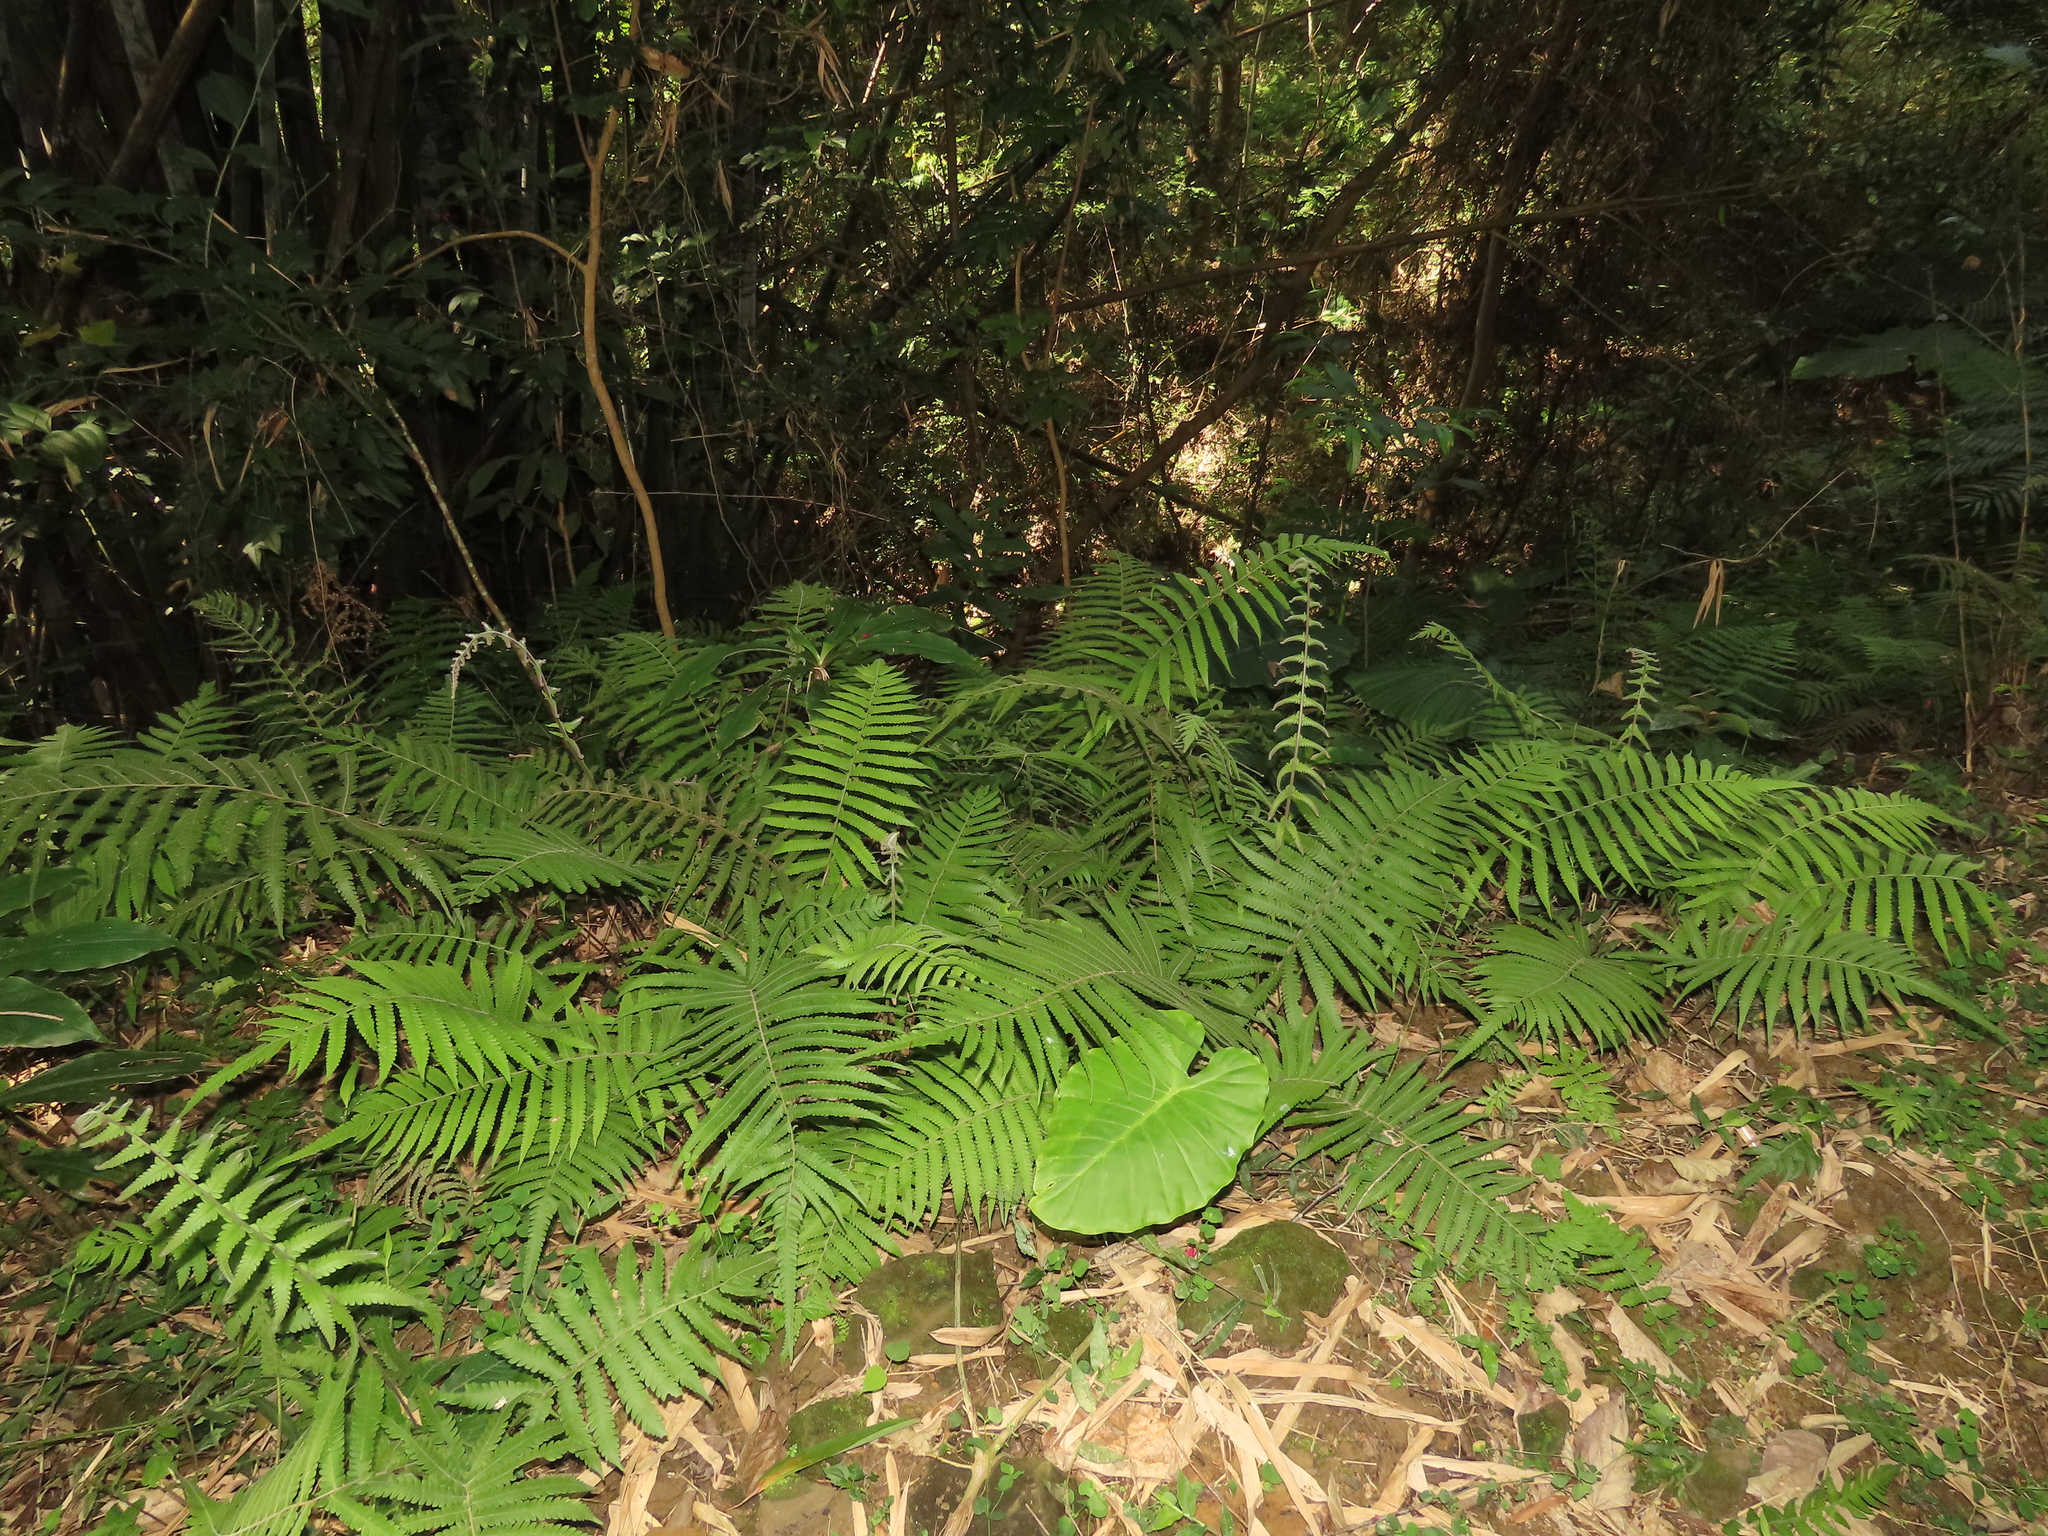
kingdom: Plantae
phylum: Tracheophyta
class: Polypodiopsida
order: Polypodiales
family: Thelypteridaceae
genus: Christella
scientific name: Christella parasitica
